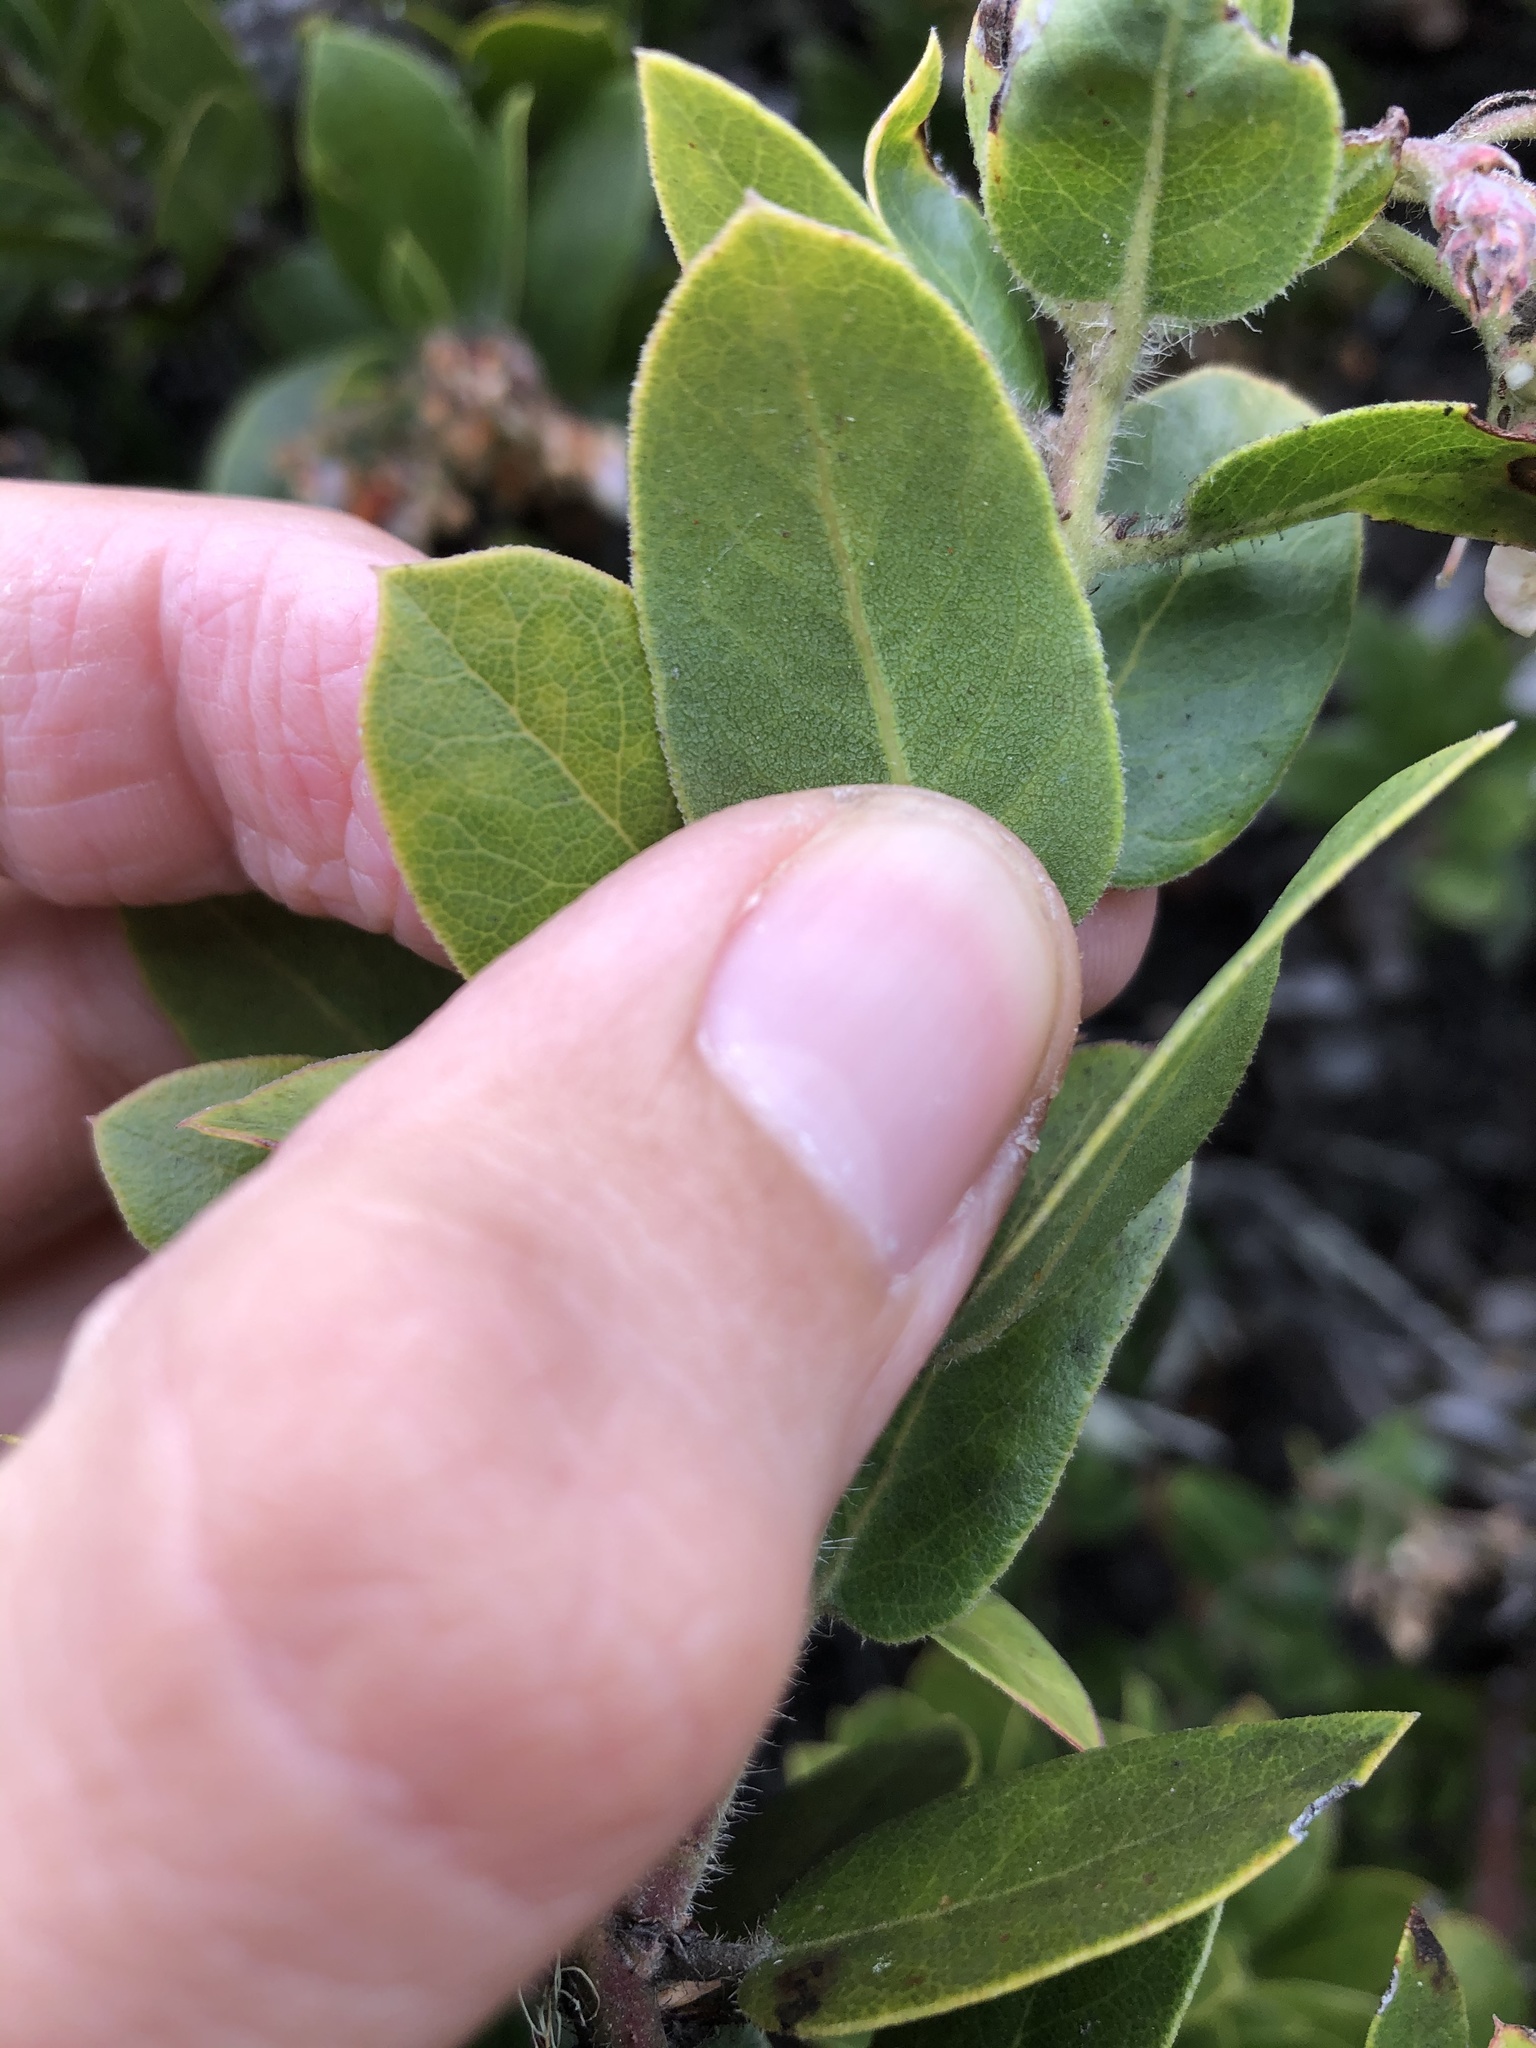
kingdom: Plantae
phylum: Tracheophyta
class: Magnoliopsida
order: Ericales
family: Ericaceae
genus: Arctostaphylos
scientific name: Arctostaphylos crustacea
